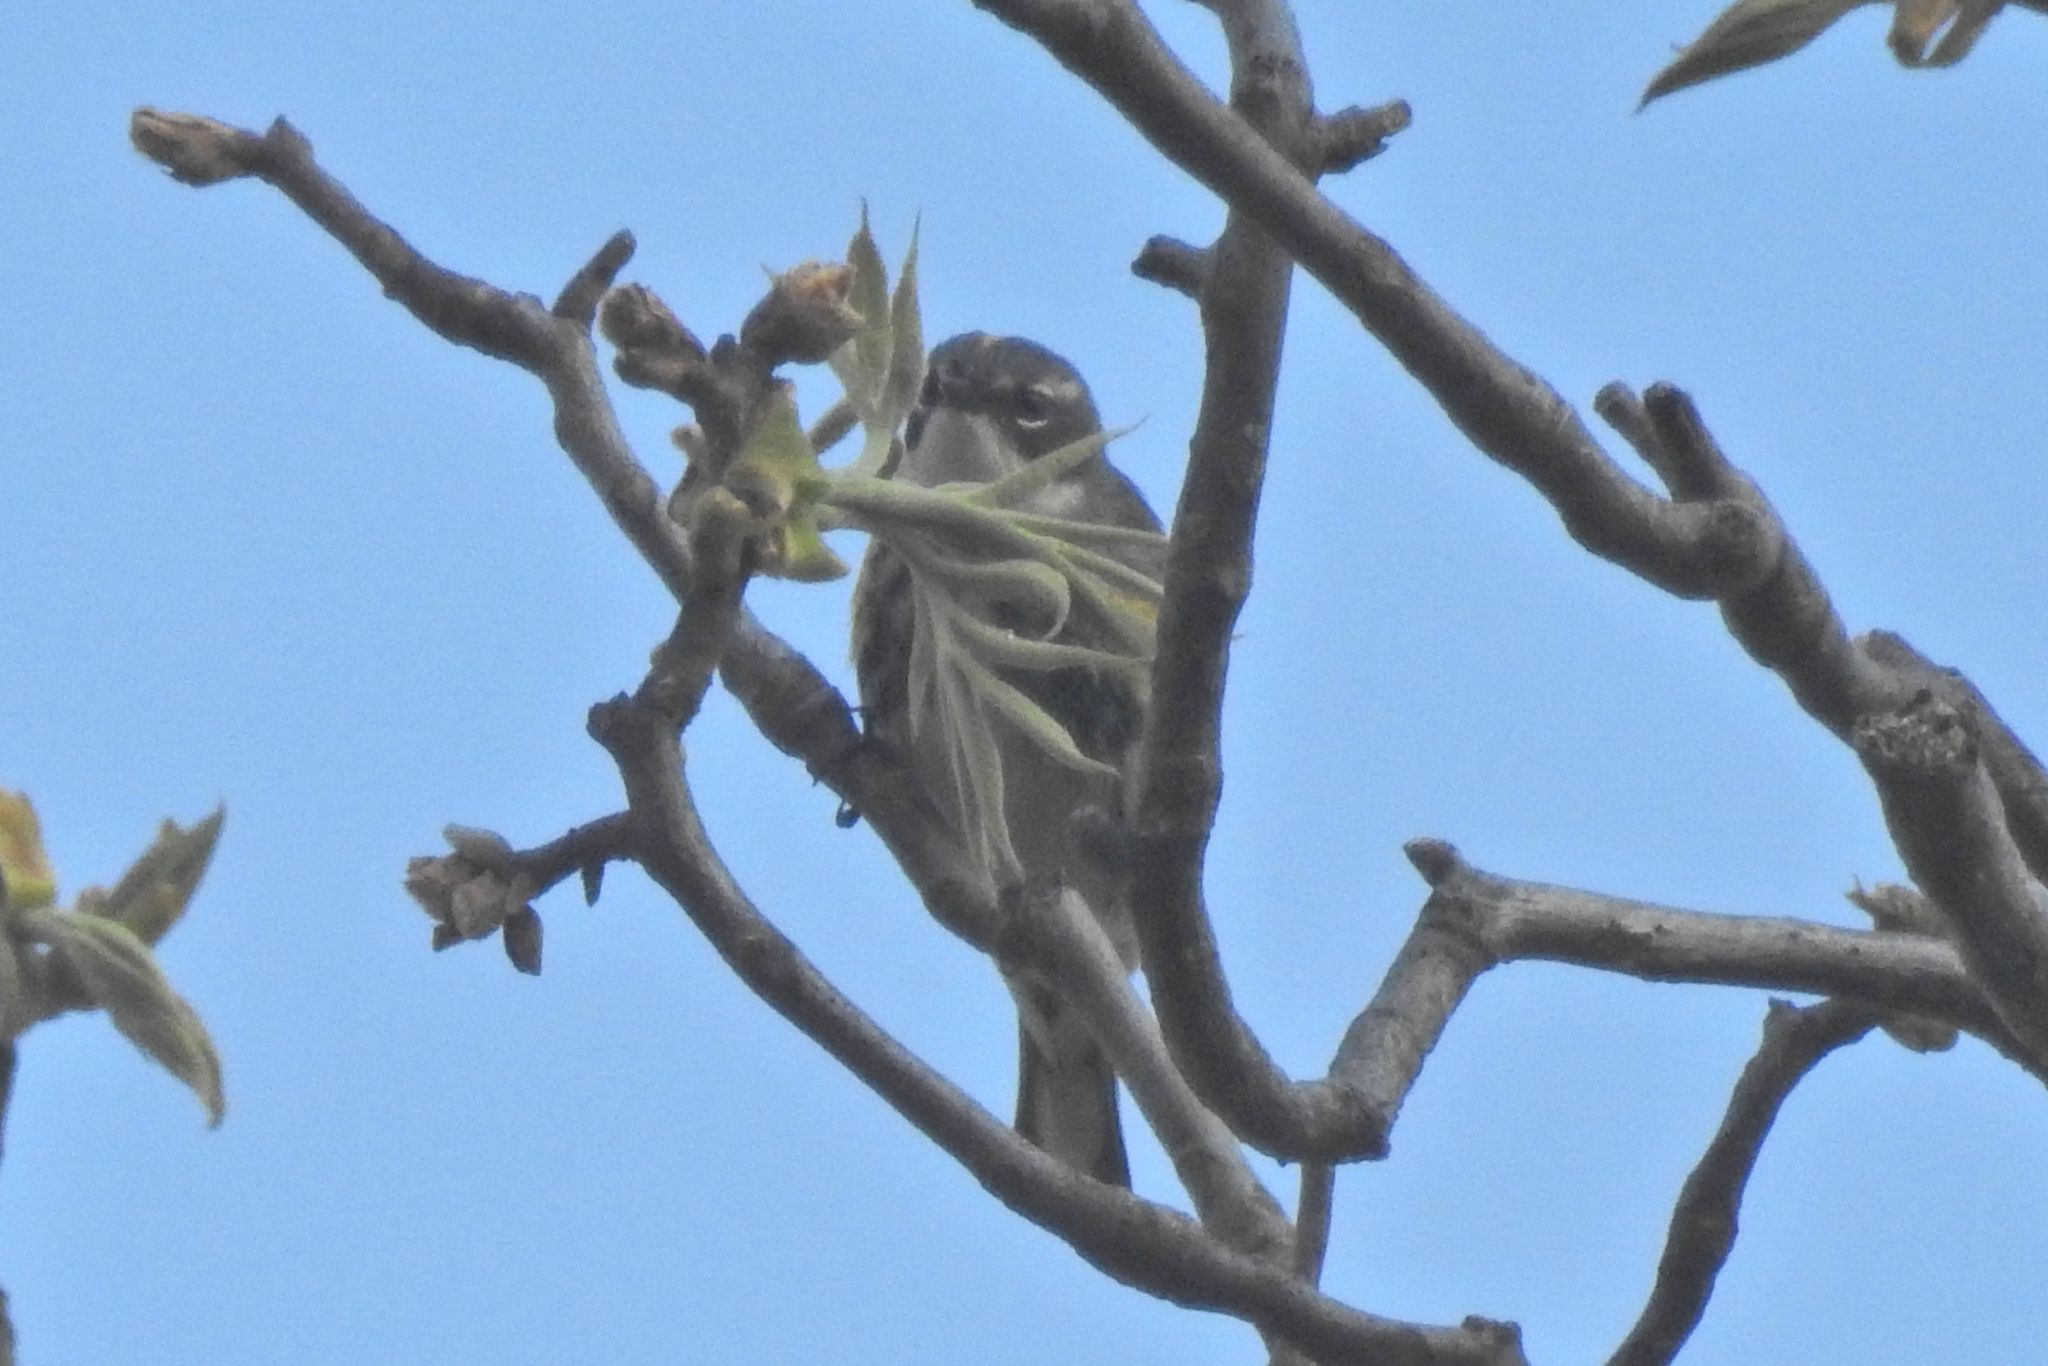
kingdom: Animalia
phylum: Chordata
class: Aves
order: Passeriformes
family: Parulidae
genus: Setophaga
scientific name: Setophaga coronata
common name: Myrtle warbler
